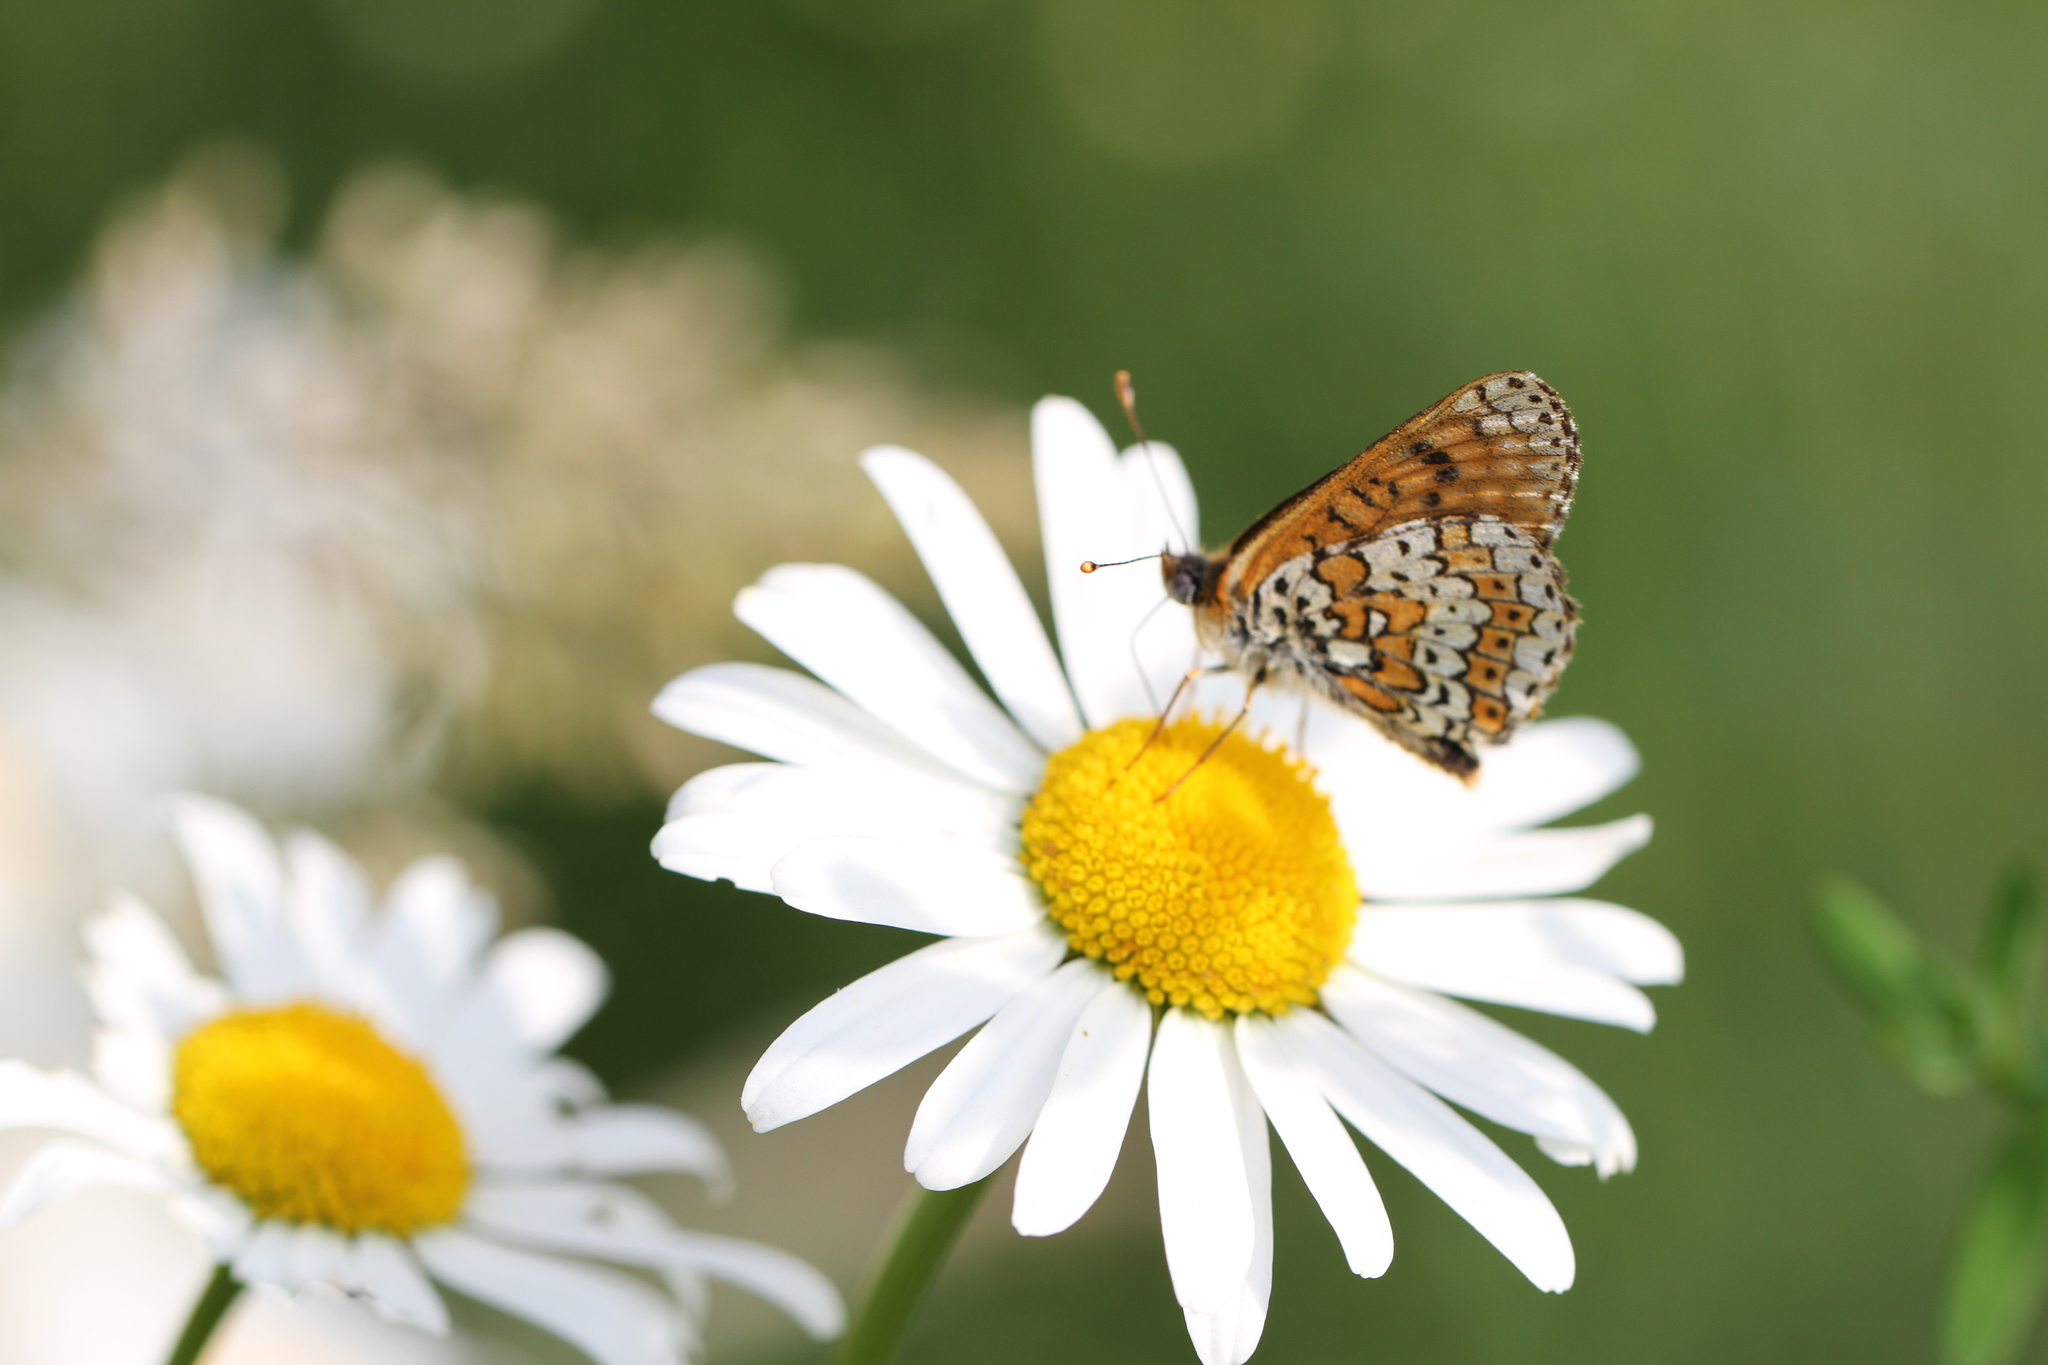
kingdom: Animalia
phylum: Arthropoda
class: Insecta
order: Lepidoptera
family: Nymphalidae
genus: Melitaea
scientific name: Melitaea cinxia
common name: Glanville fritillary
